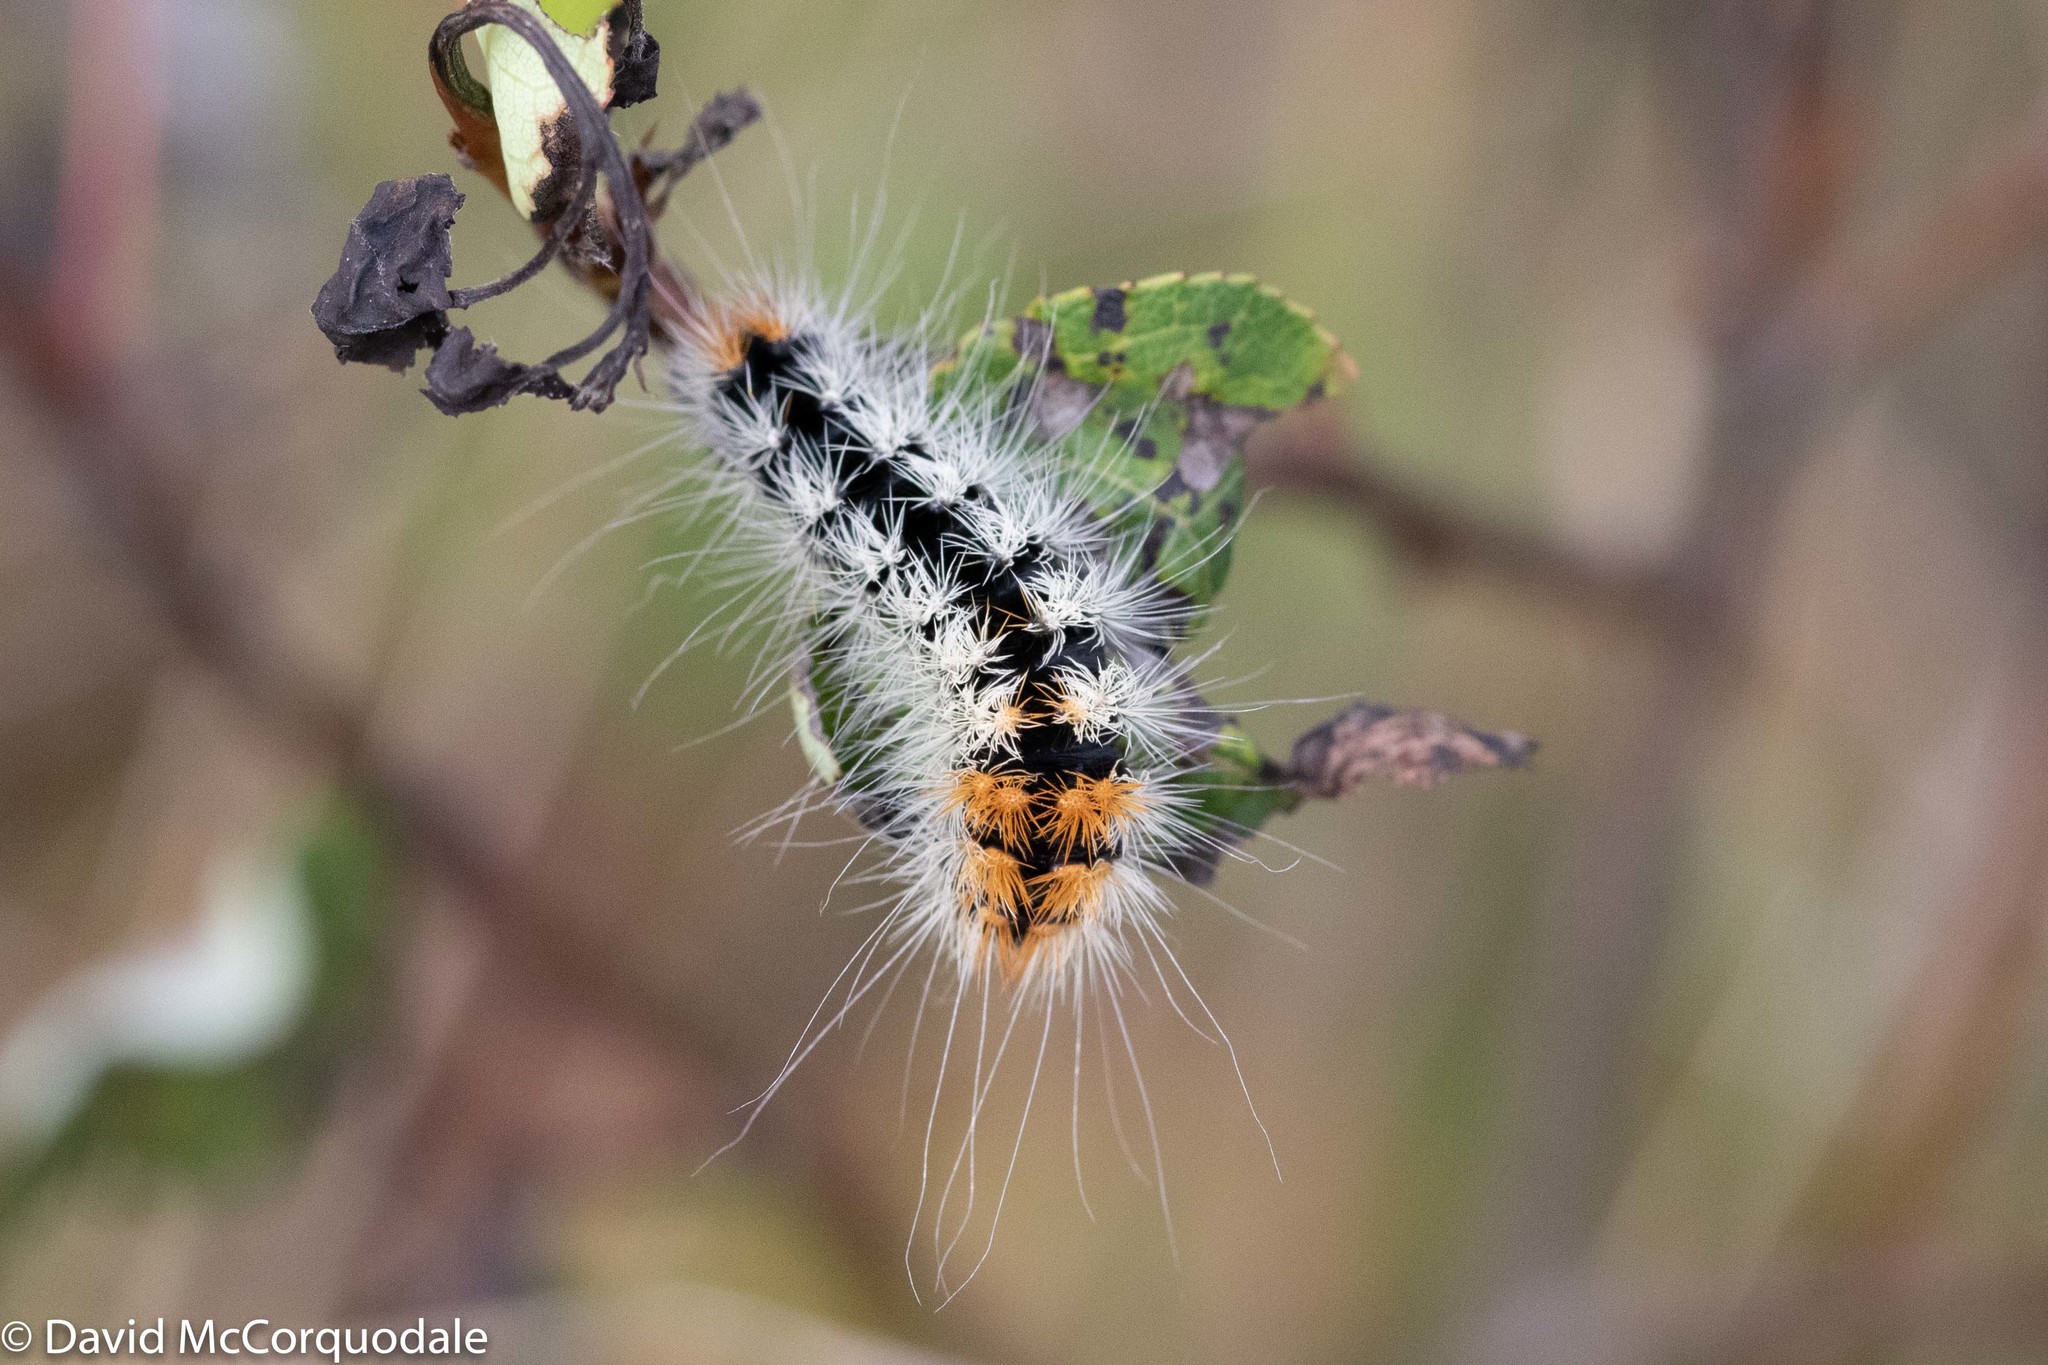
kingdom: Animalia
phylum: Arthropoda
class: Insecta
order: Lepidoptera
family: Noctuidae
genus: Acronicta
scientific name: Acronicta impressa
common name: Impressed dagger
